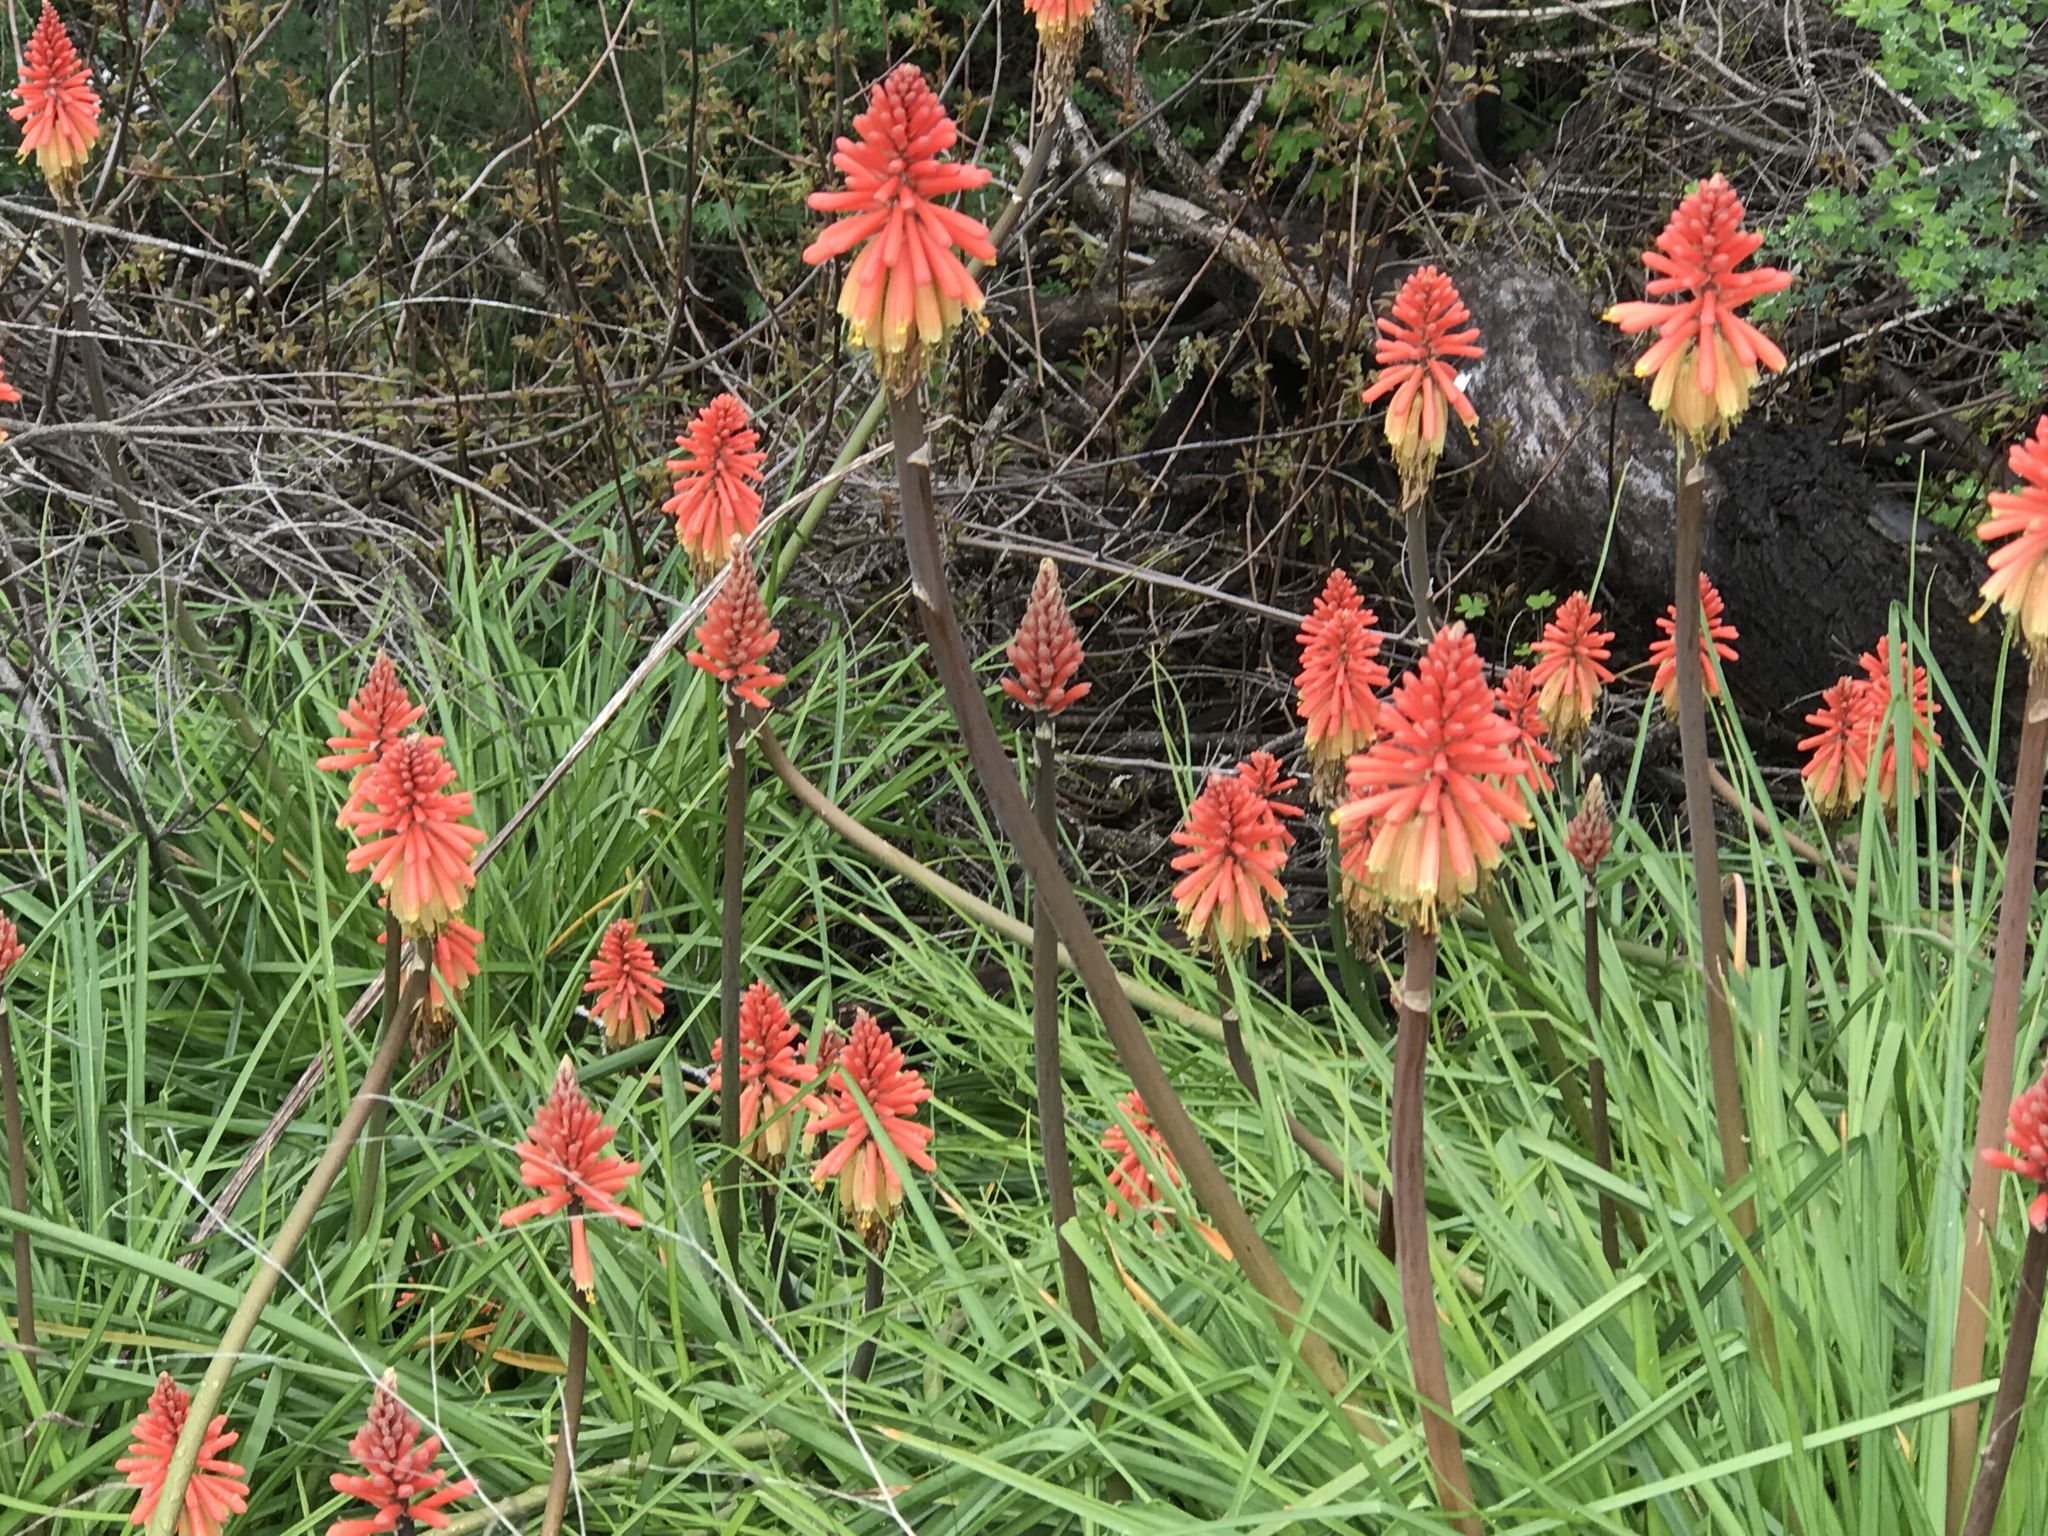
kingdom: Plantae
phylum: Tracheophyta
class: Liliopsida
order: Asparagales
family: Asphodelaceae
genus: Kniphofia
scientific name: Kniphofia uvaria
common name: Red-hot-poker
